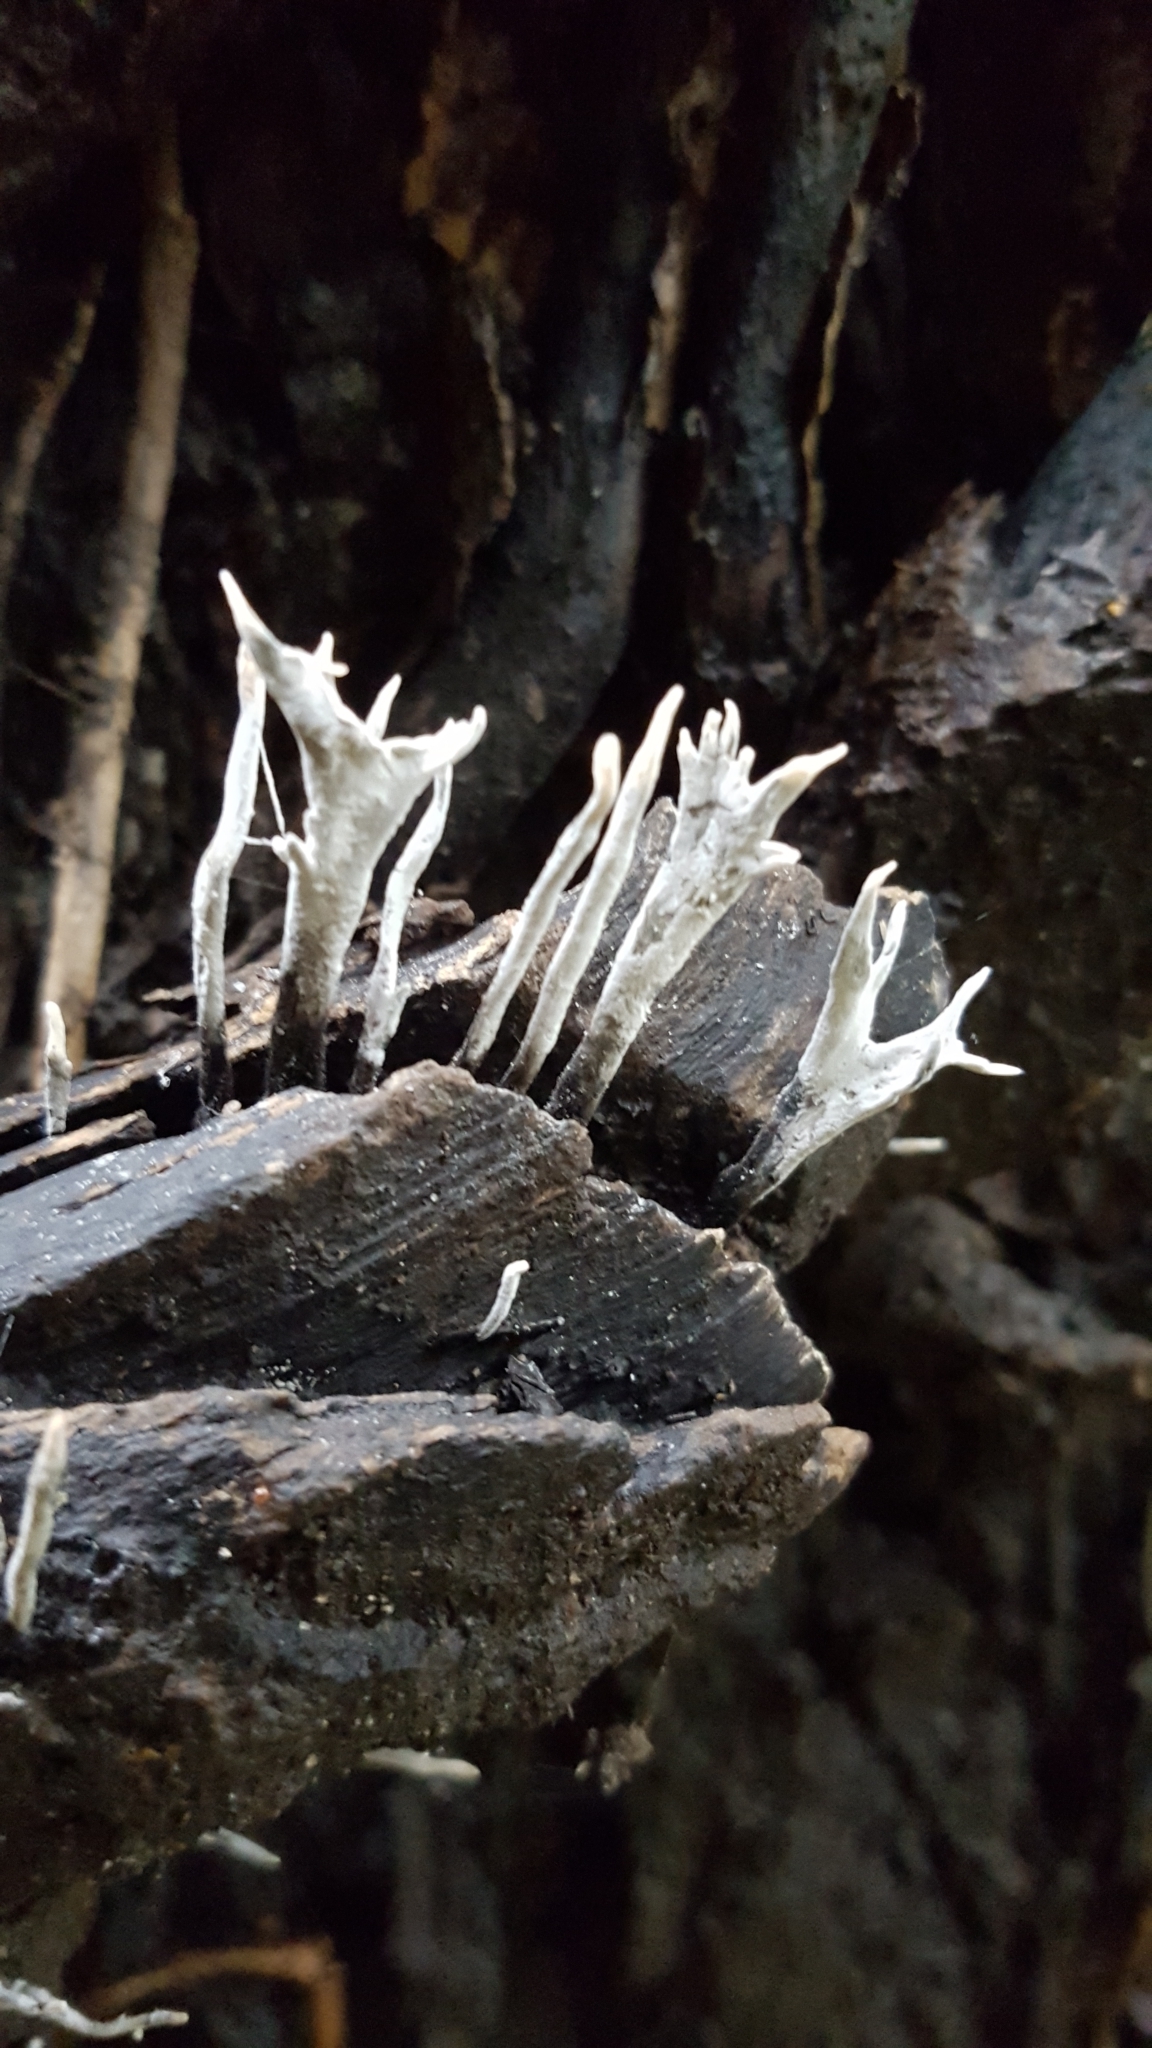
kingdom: Fungi
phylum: Ascomycota
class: Sordariomycetes
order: Xylariales
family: Xylariaceae
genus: Xylaria
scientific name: Xylaria hypoxylon
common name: Candle-snuff fungus
